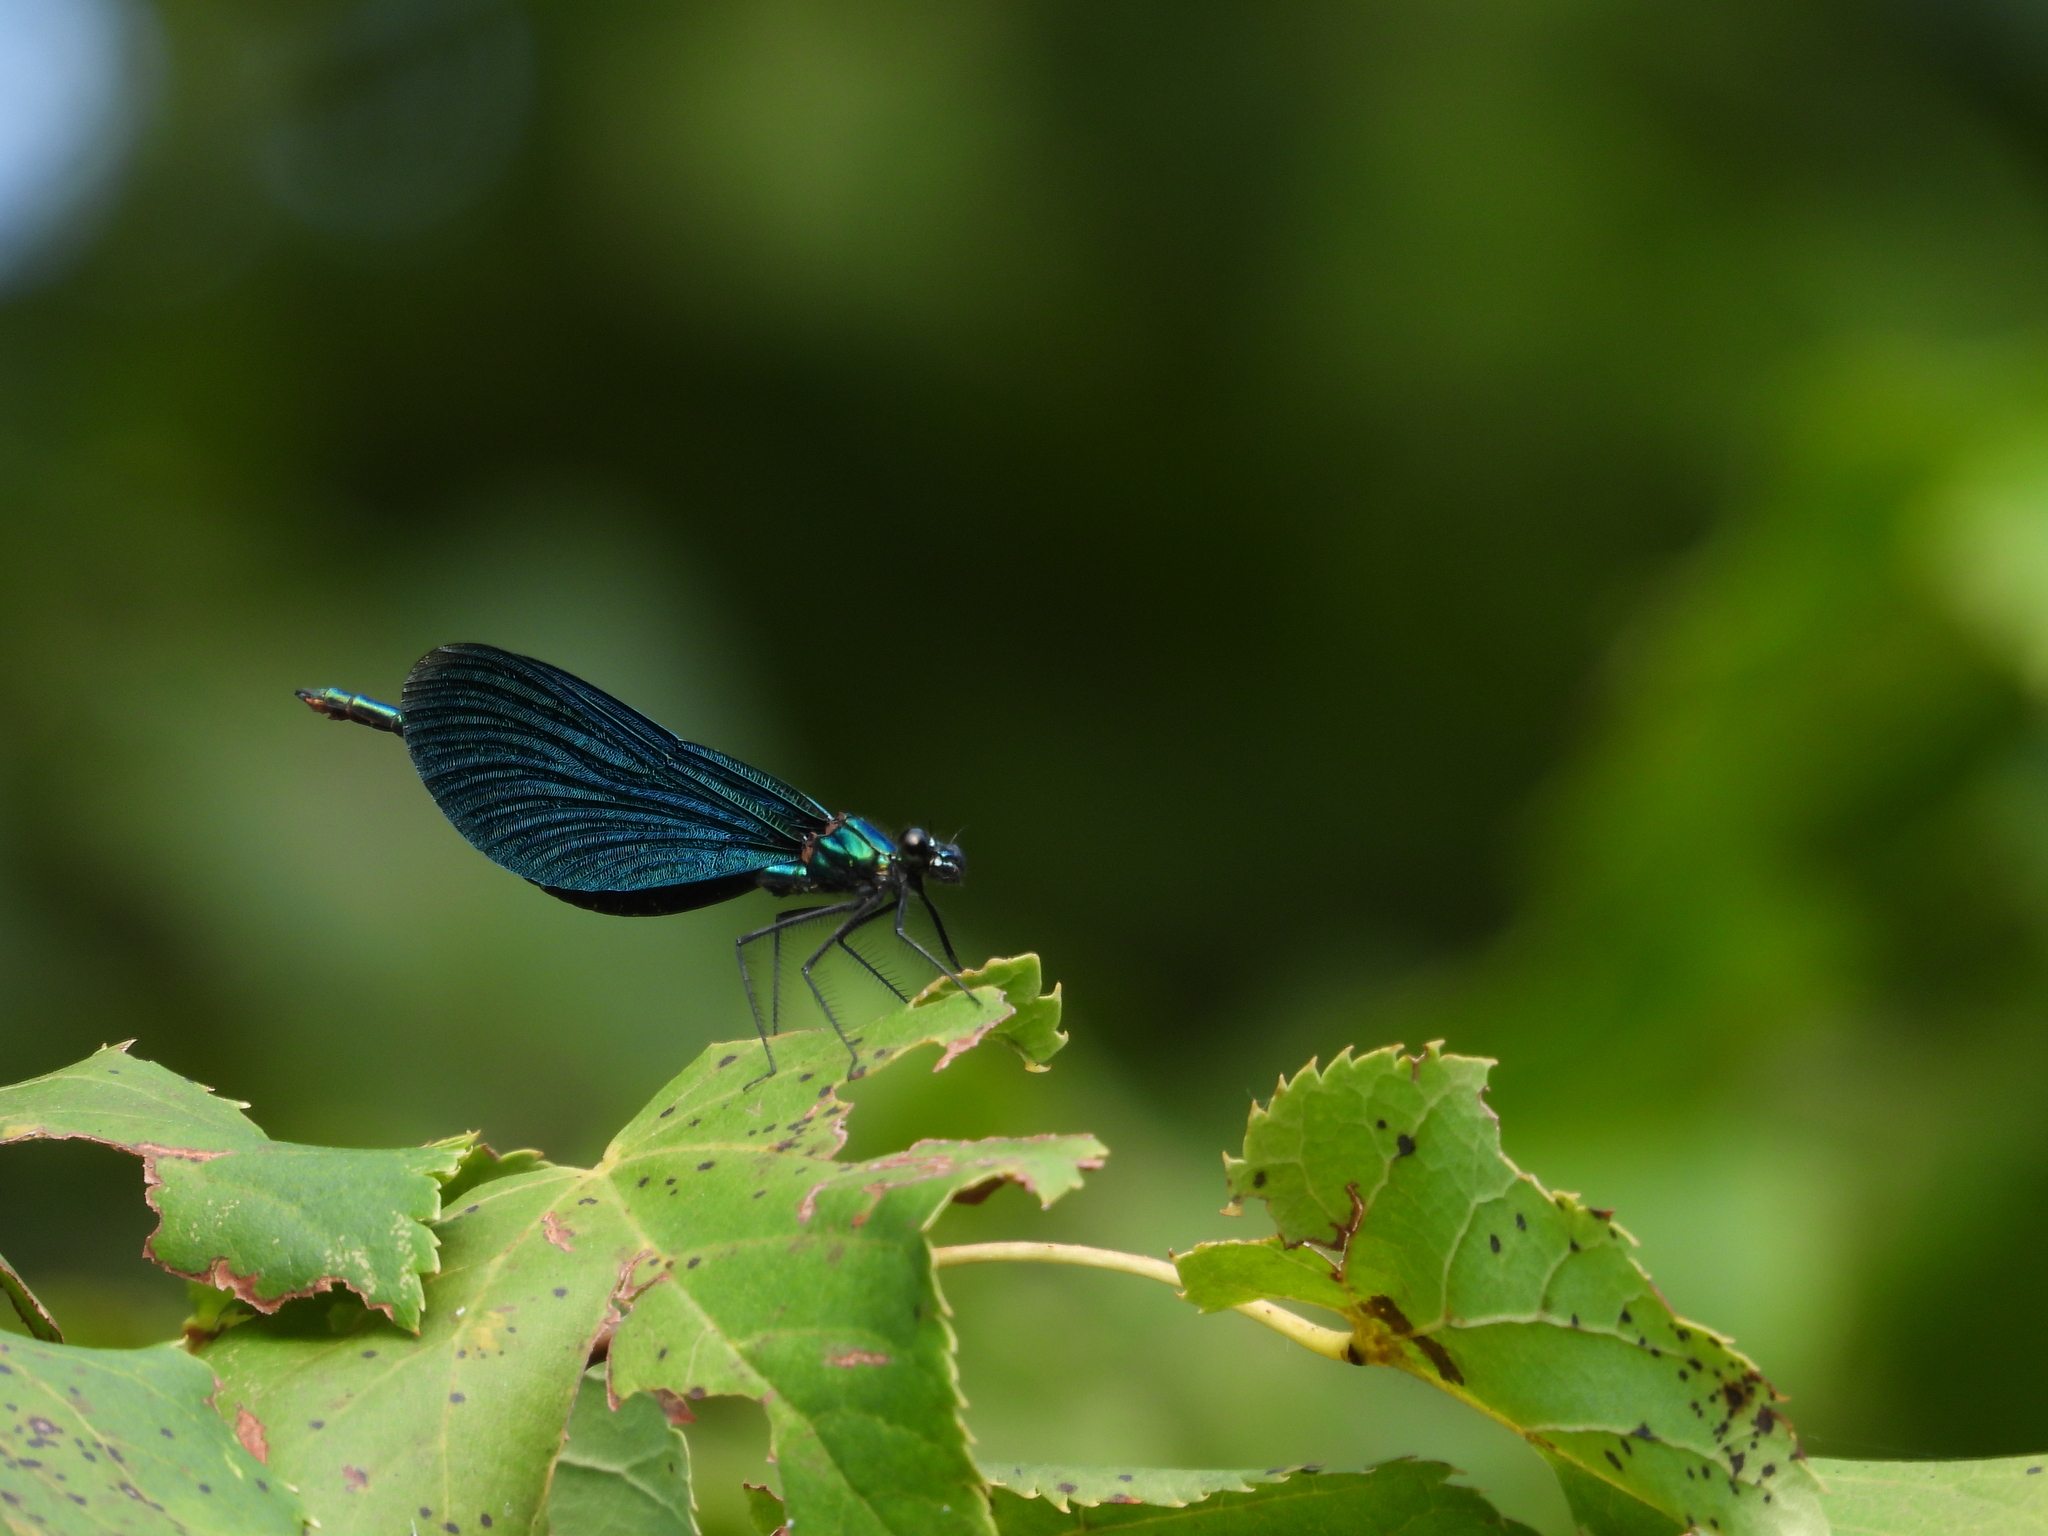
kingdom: Animalia
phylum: Arthropoda
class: Insecta
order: Odonata
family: Calopterygidae
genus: Calopteryx
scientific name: Calopteryx virgo
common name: Beautiful demoiselle
